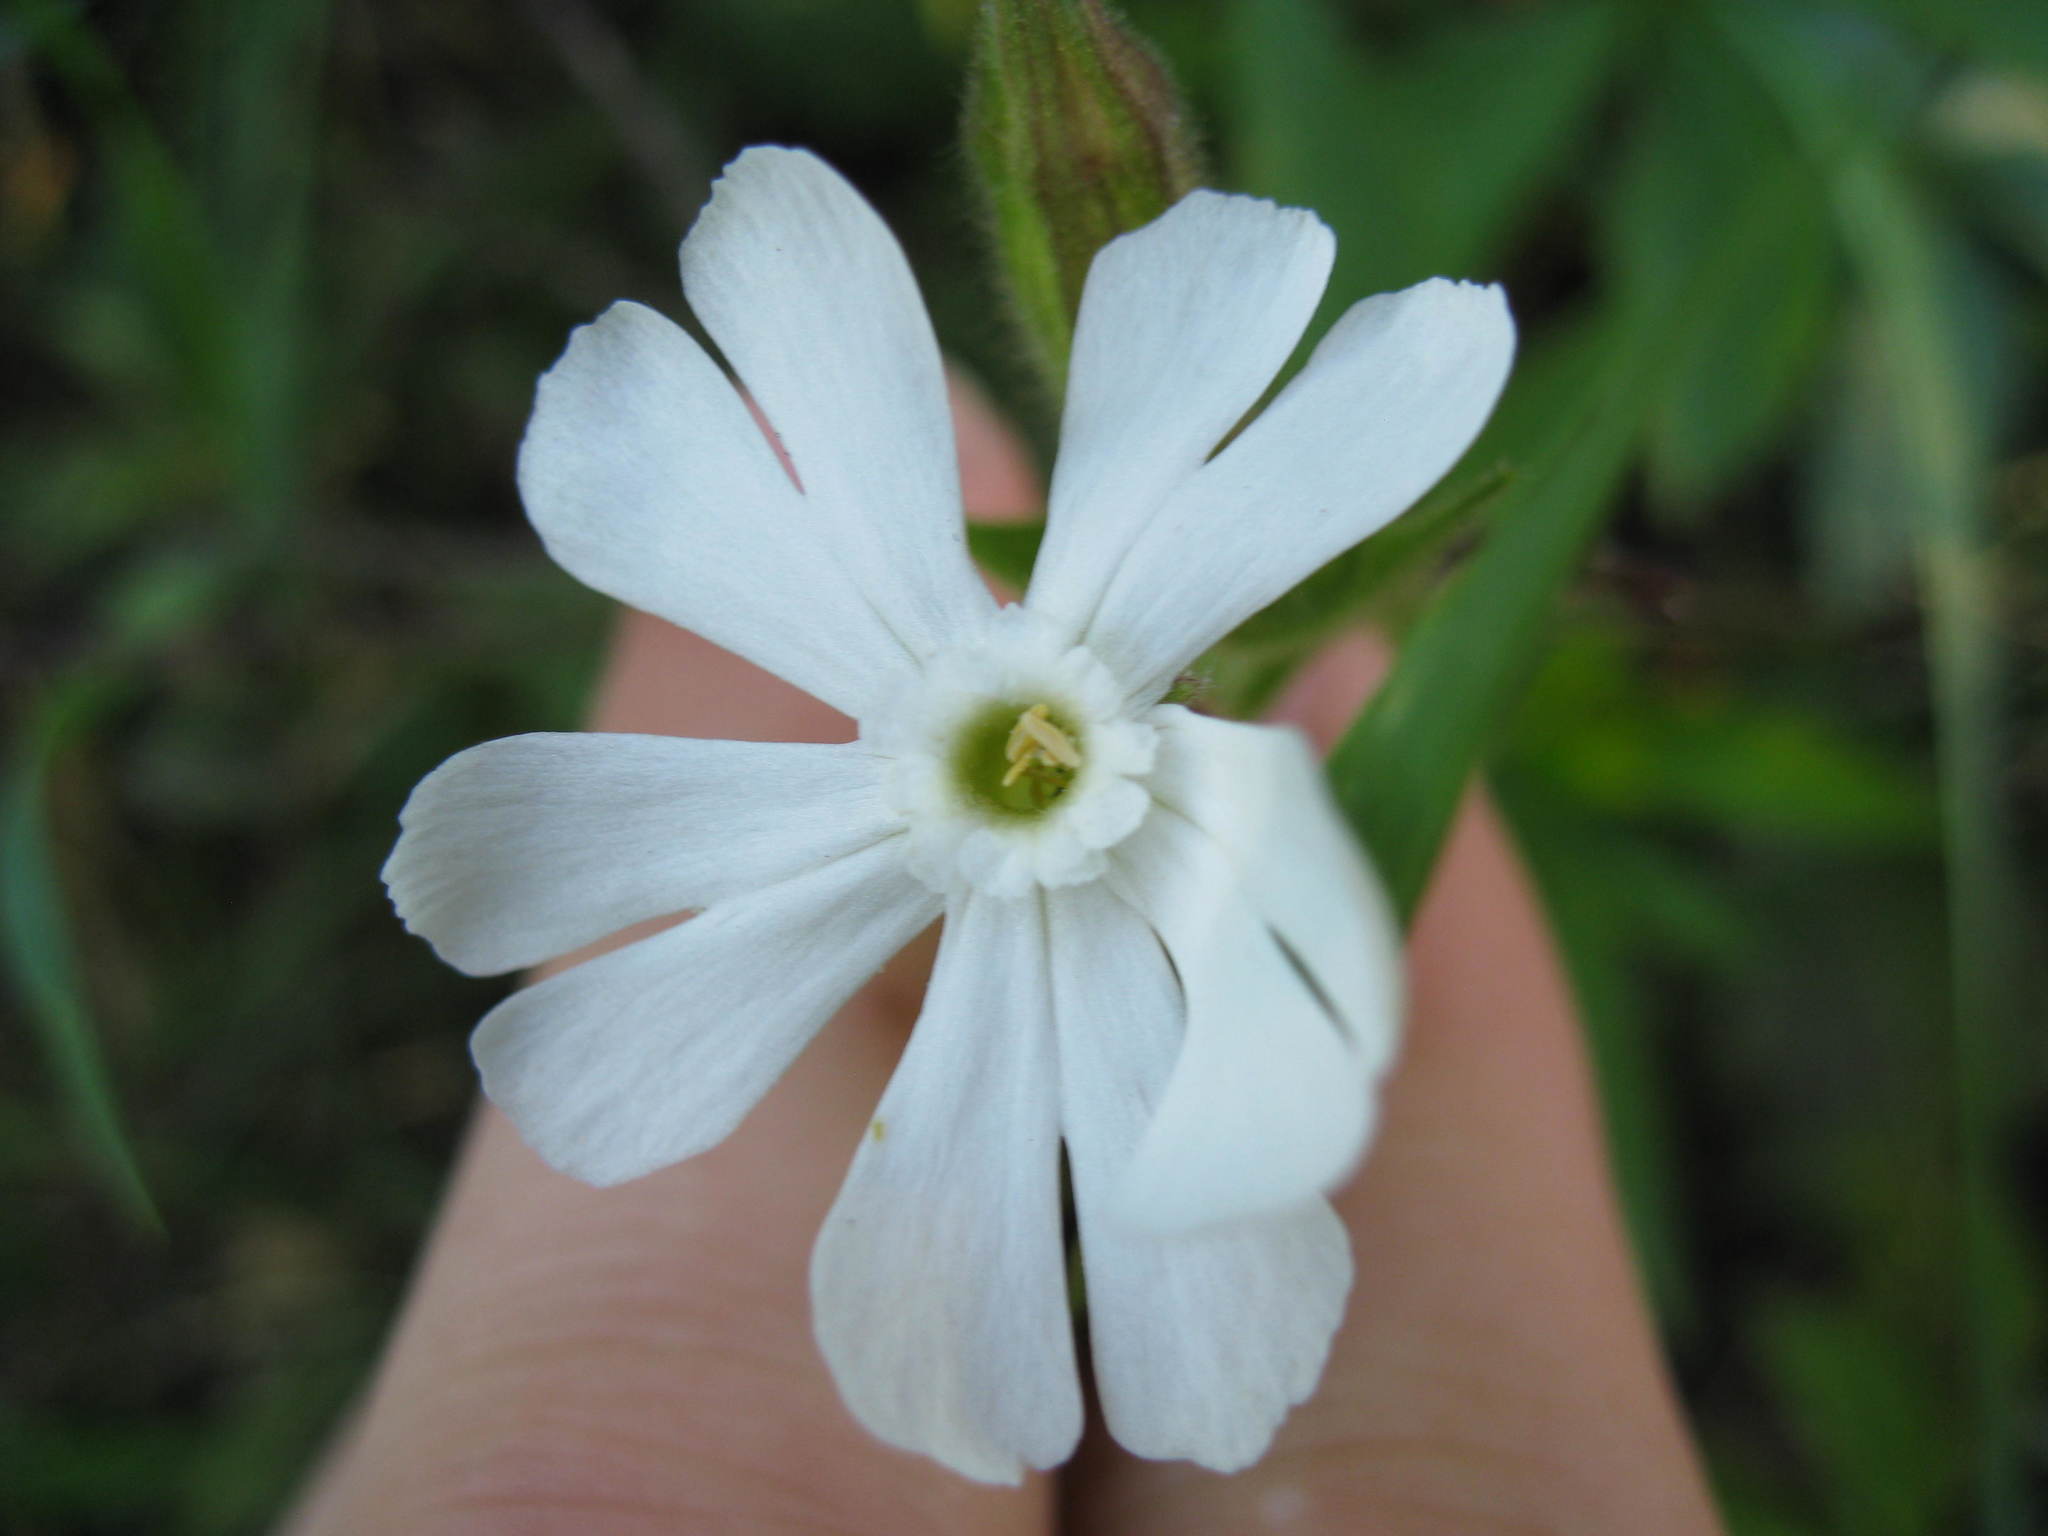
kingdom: Plantae
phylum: Tracheophyta
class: Magnoliopsida
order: Caryophyllales
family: Caryophyllaceae
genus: Silene
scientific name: Silene latifolia
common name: White campion
